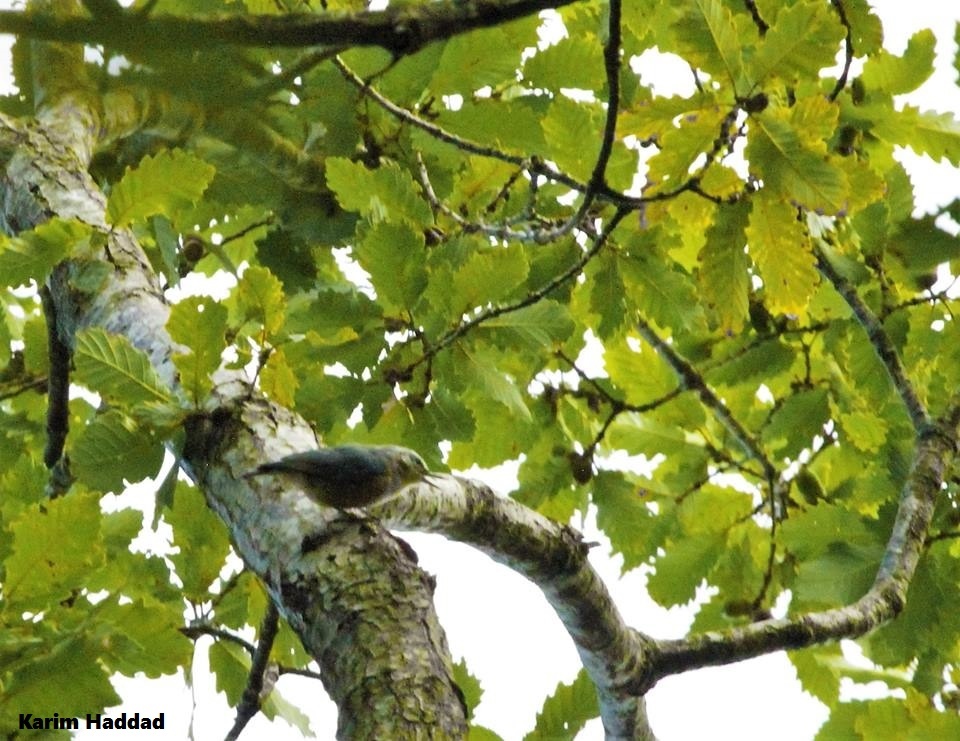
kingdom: Animalia
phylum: Chordata
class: Aves
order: Passeriformes
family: Sittidae
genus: Sitta
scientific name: Sitta ledanti
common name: Algerian nuthatch
